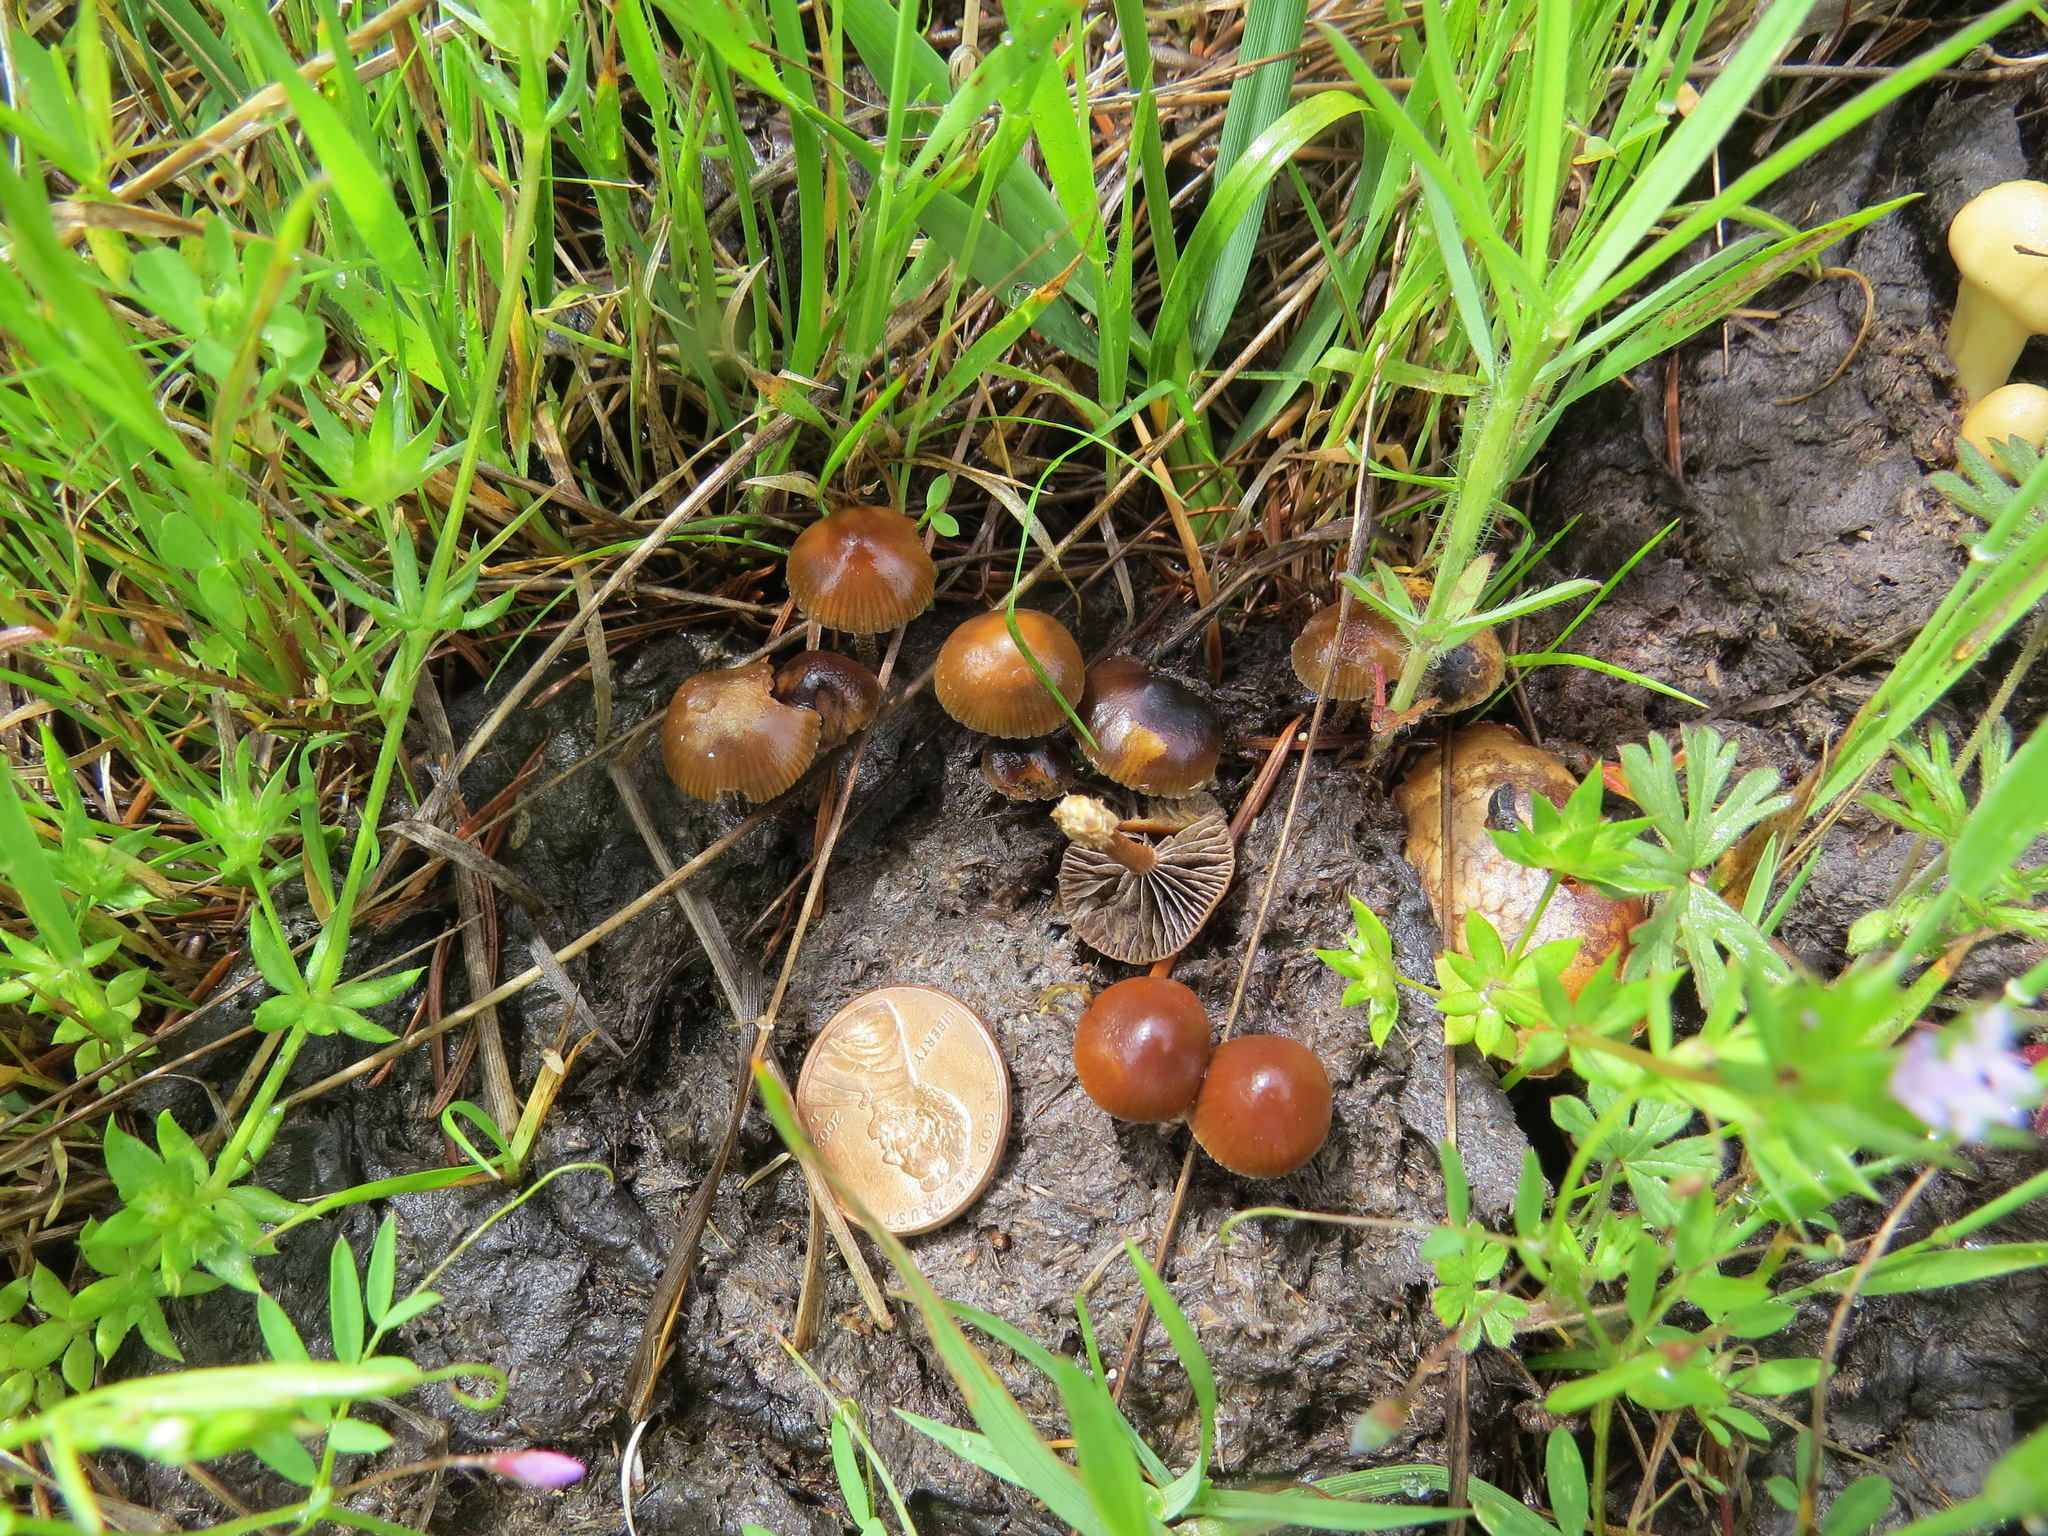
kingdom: Fungi
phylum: Basidiomycota
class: Agaricomycetes
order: Agaricales
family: Strophariaceae
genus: Deconica
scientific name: Deconica coprophila
